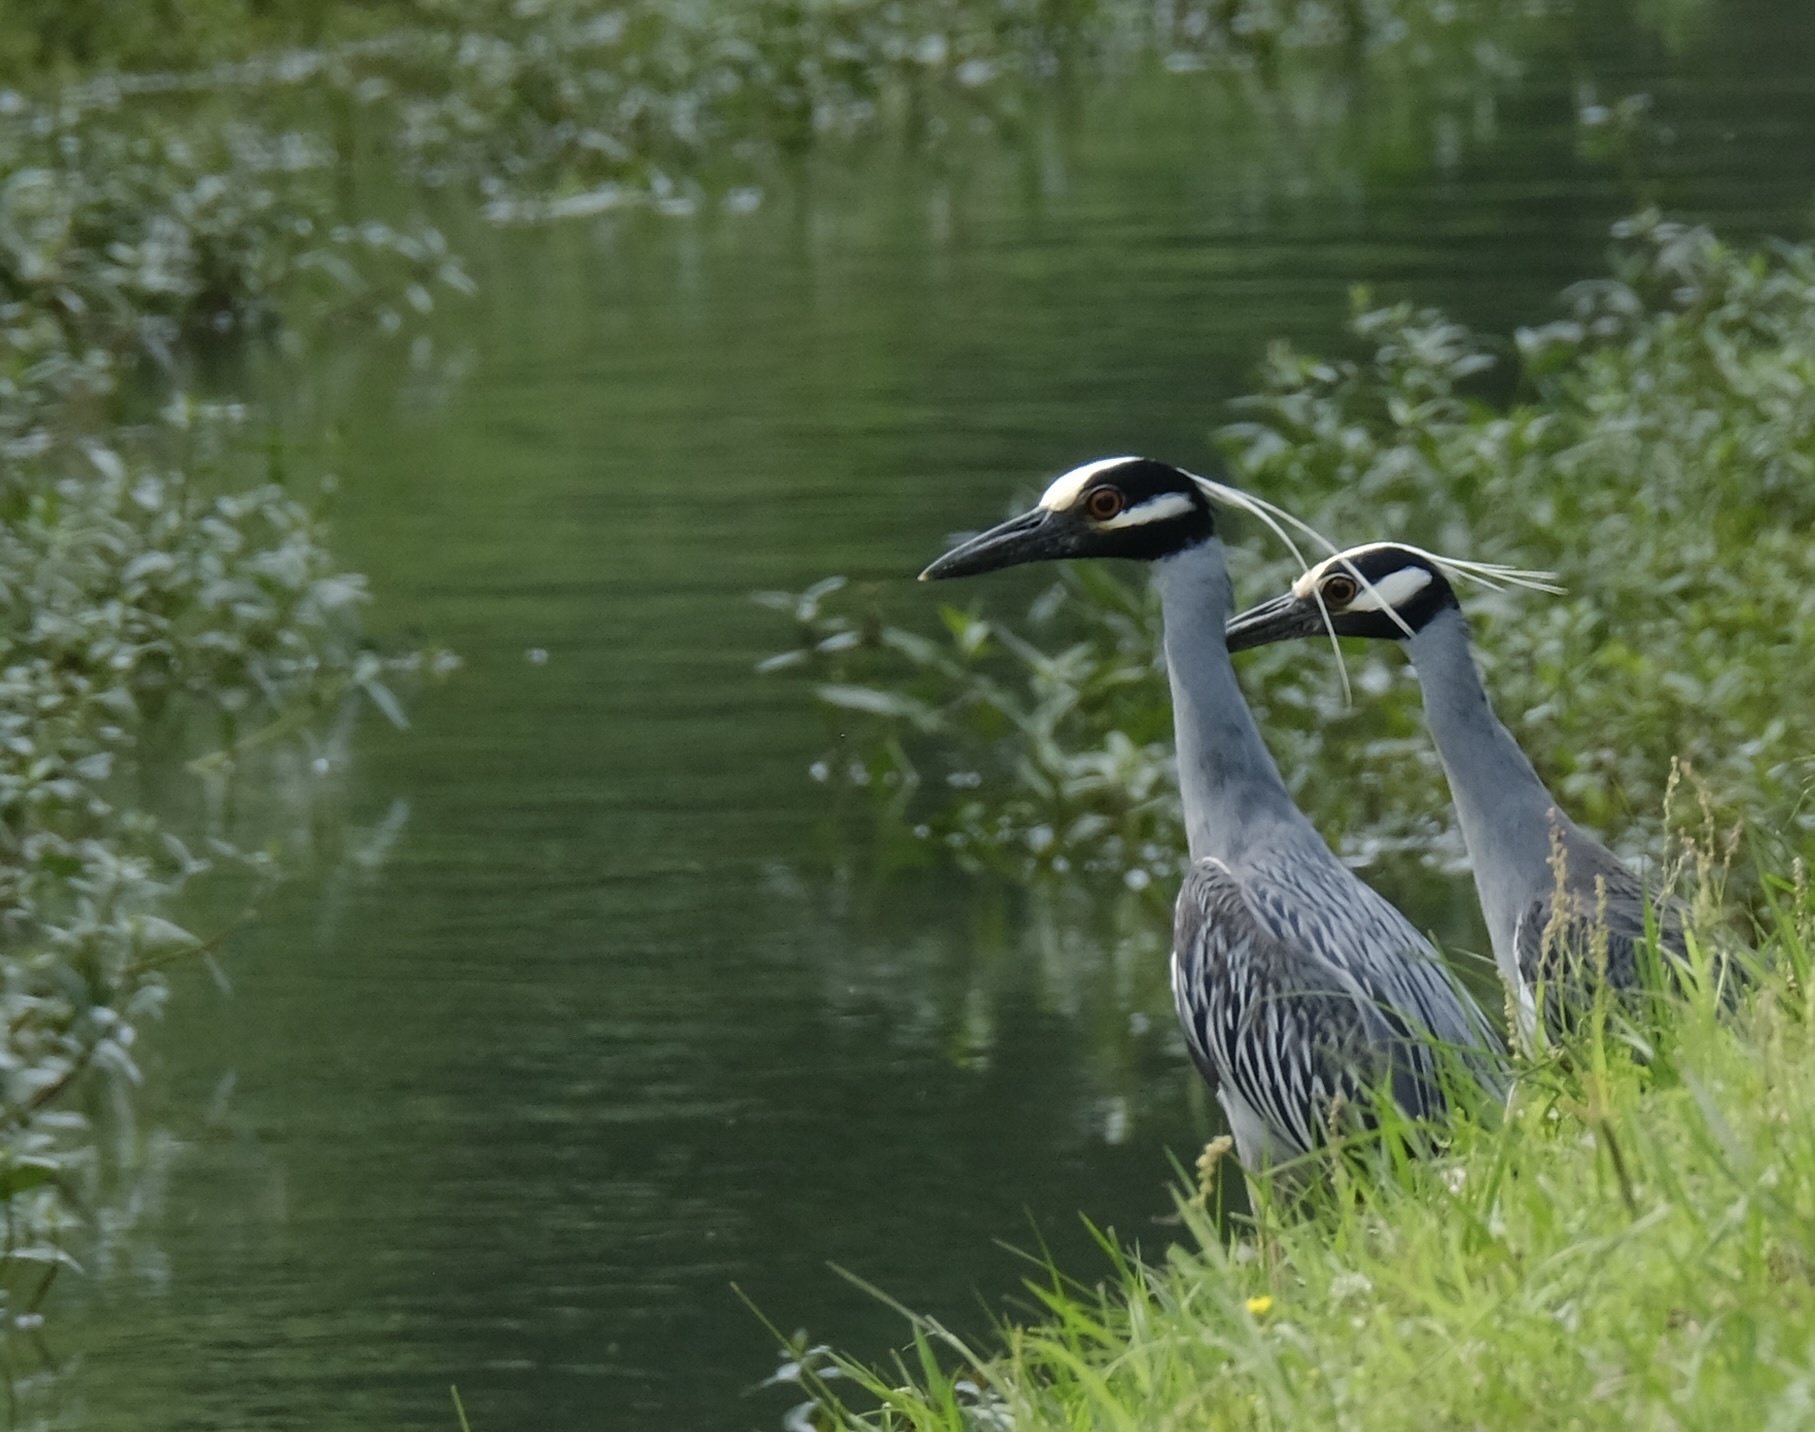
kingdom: Animalia
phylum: Chordata
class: Aves
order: Pelecaniformes
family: Ardeidae
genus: Nyctanassa
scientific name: Nyctanassa violacea
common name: Yellow-crowned night heron
